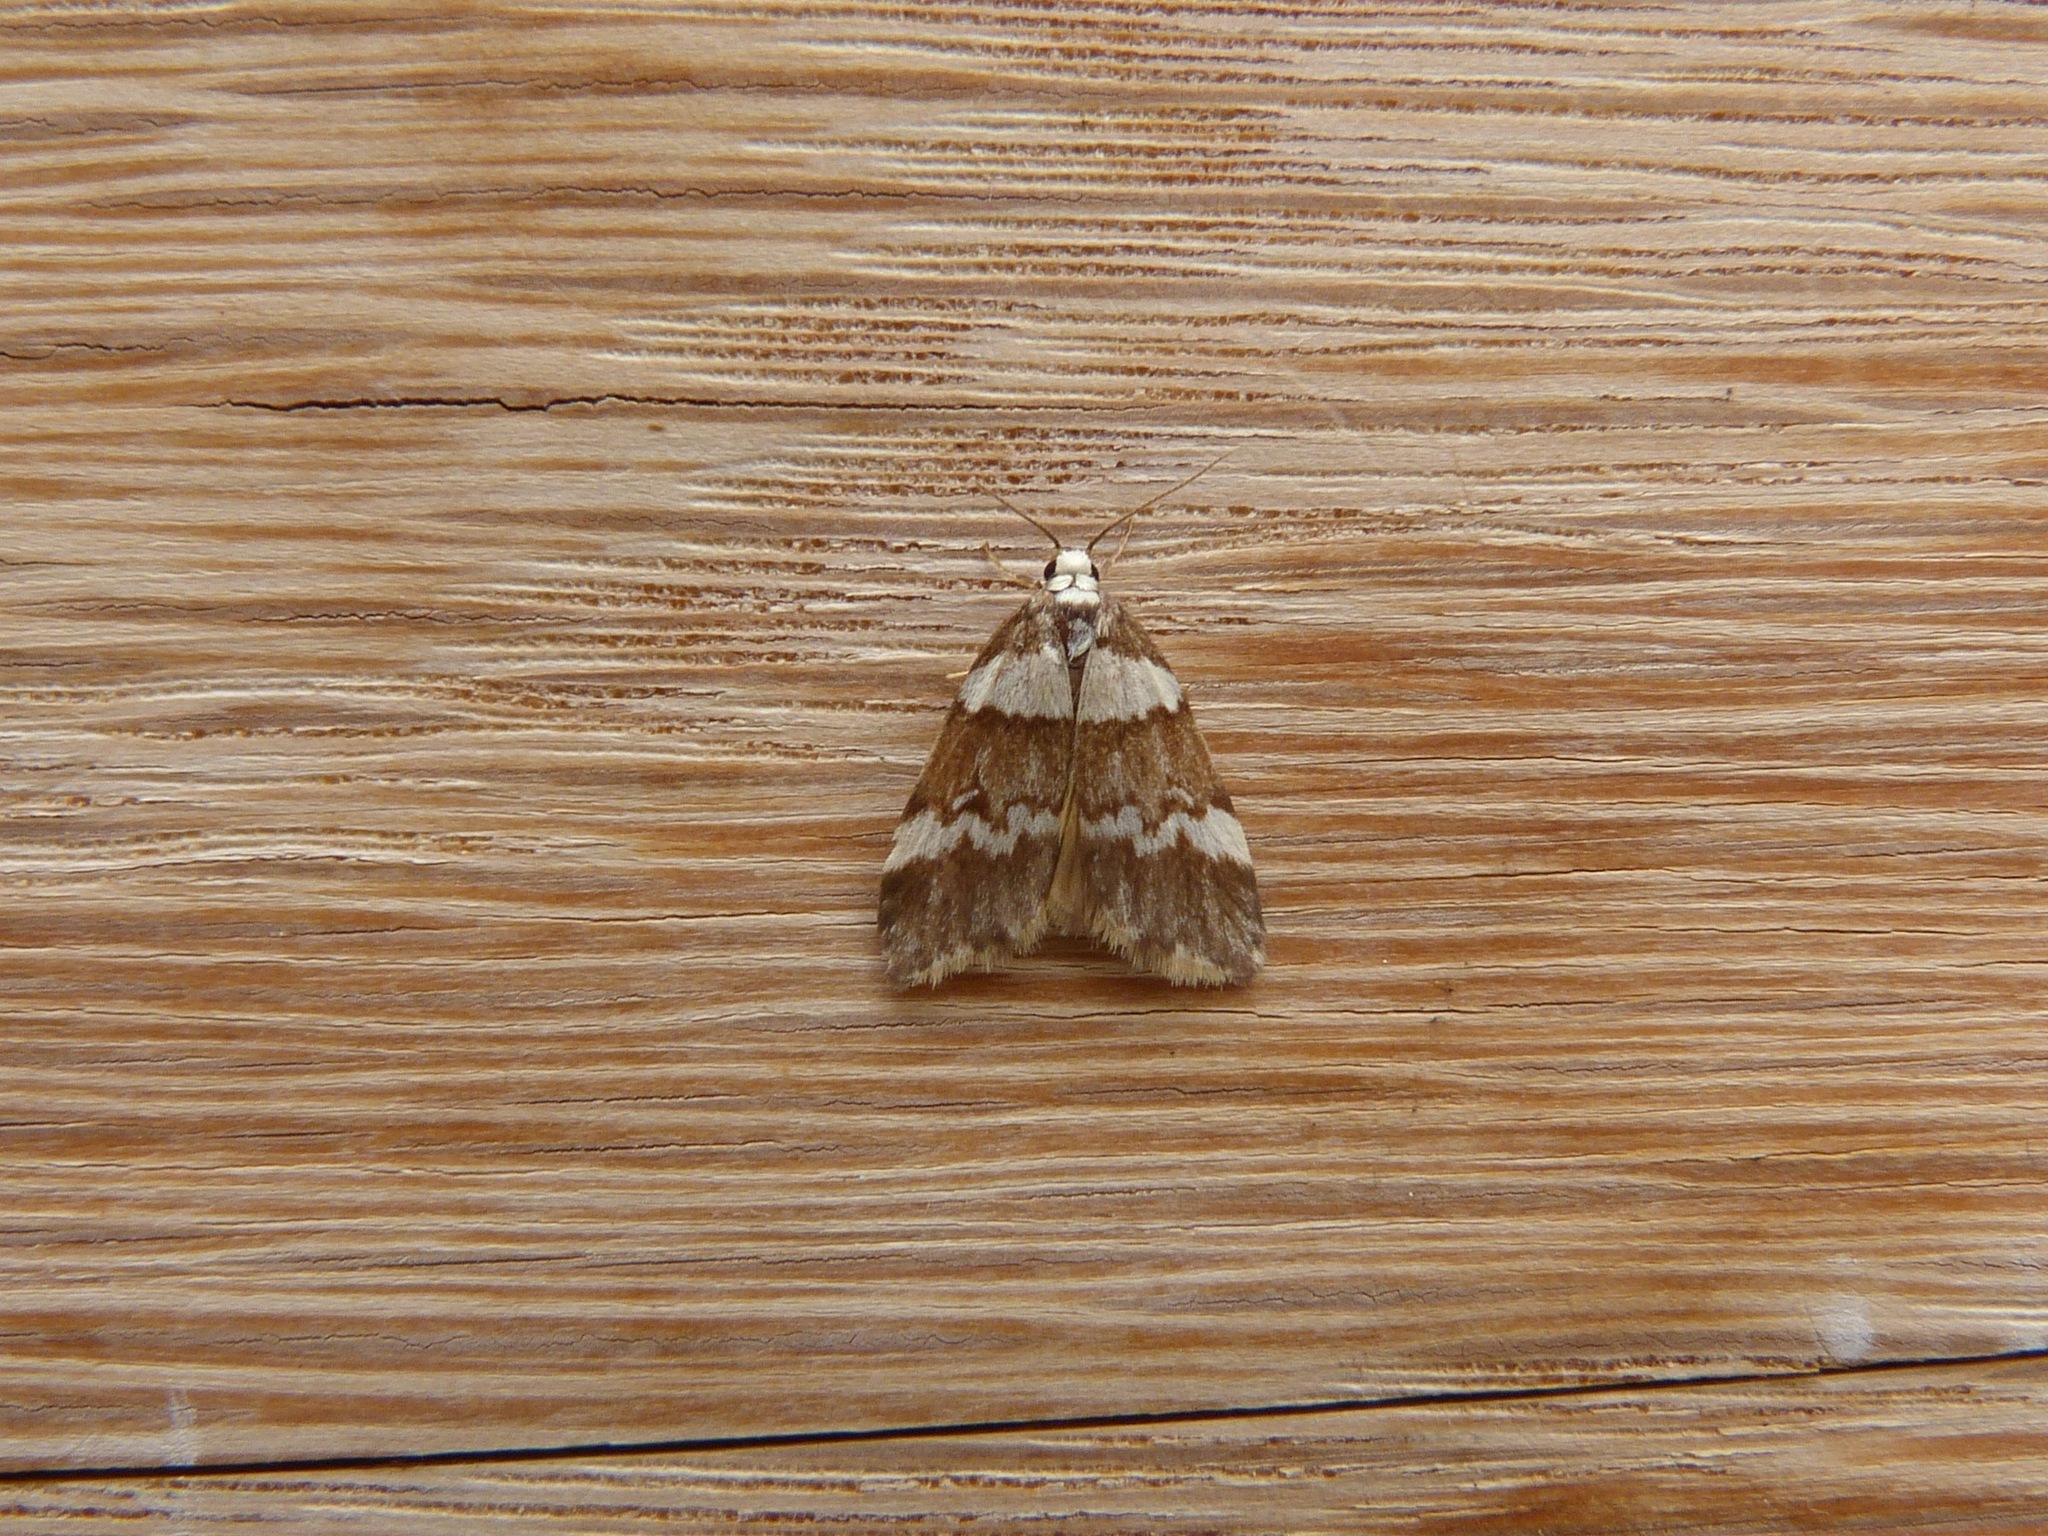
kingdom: Animalia
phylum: Arthropoda
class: Insecta
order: Lepidoptera
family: Erebidae
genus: Halone
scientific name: Halone sejuncta
